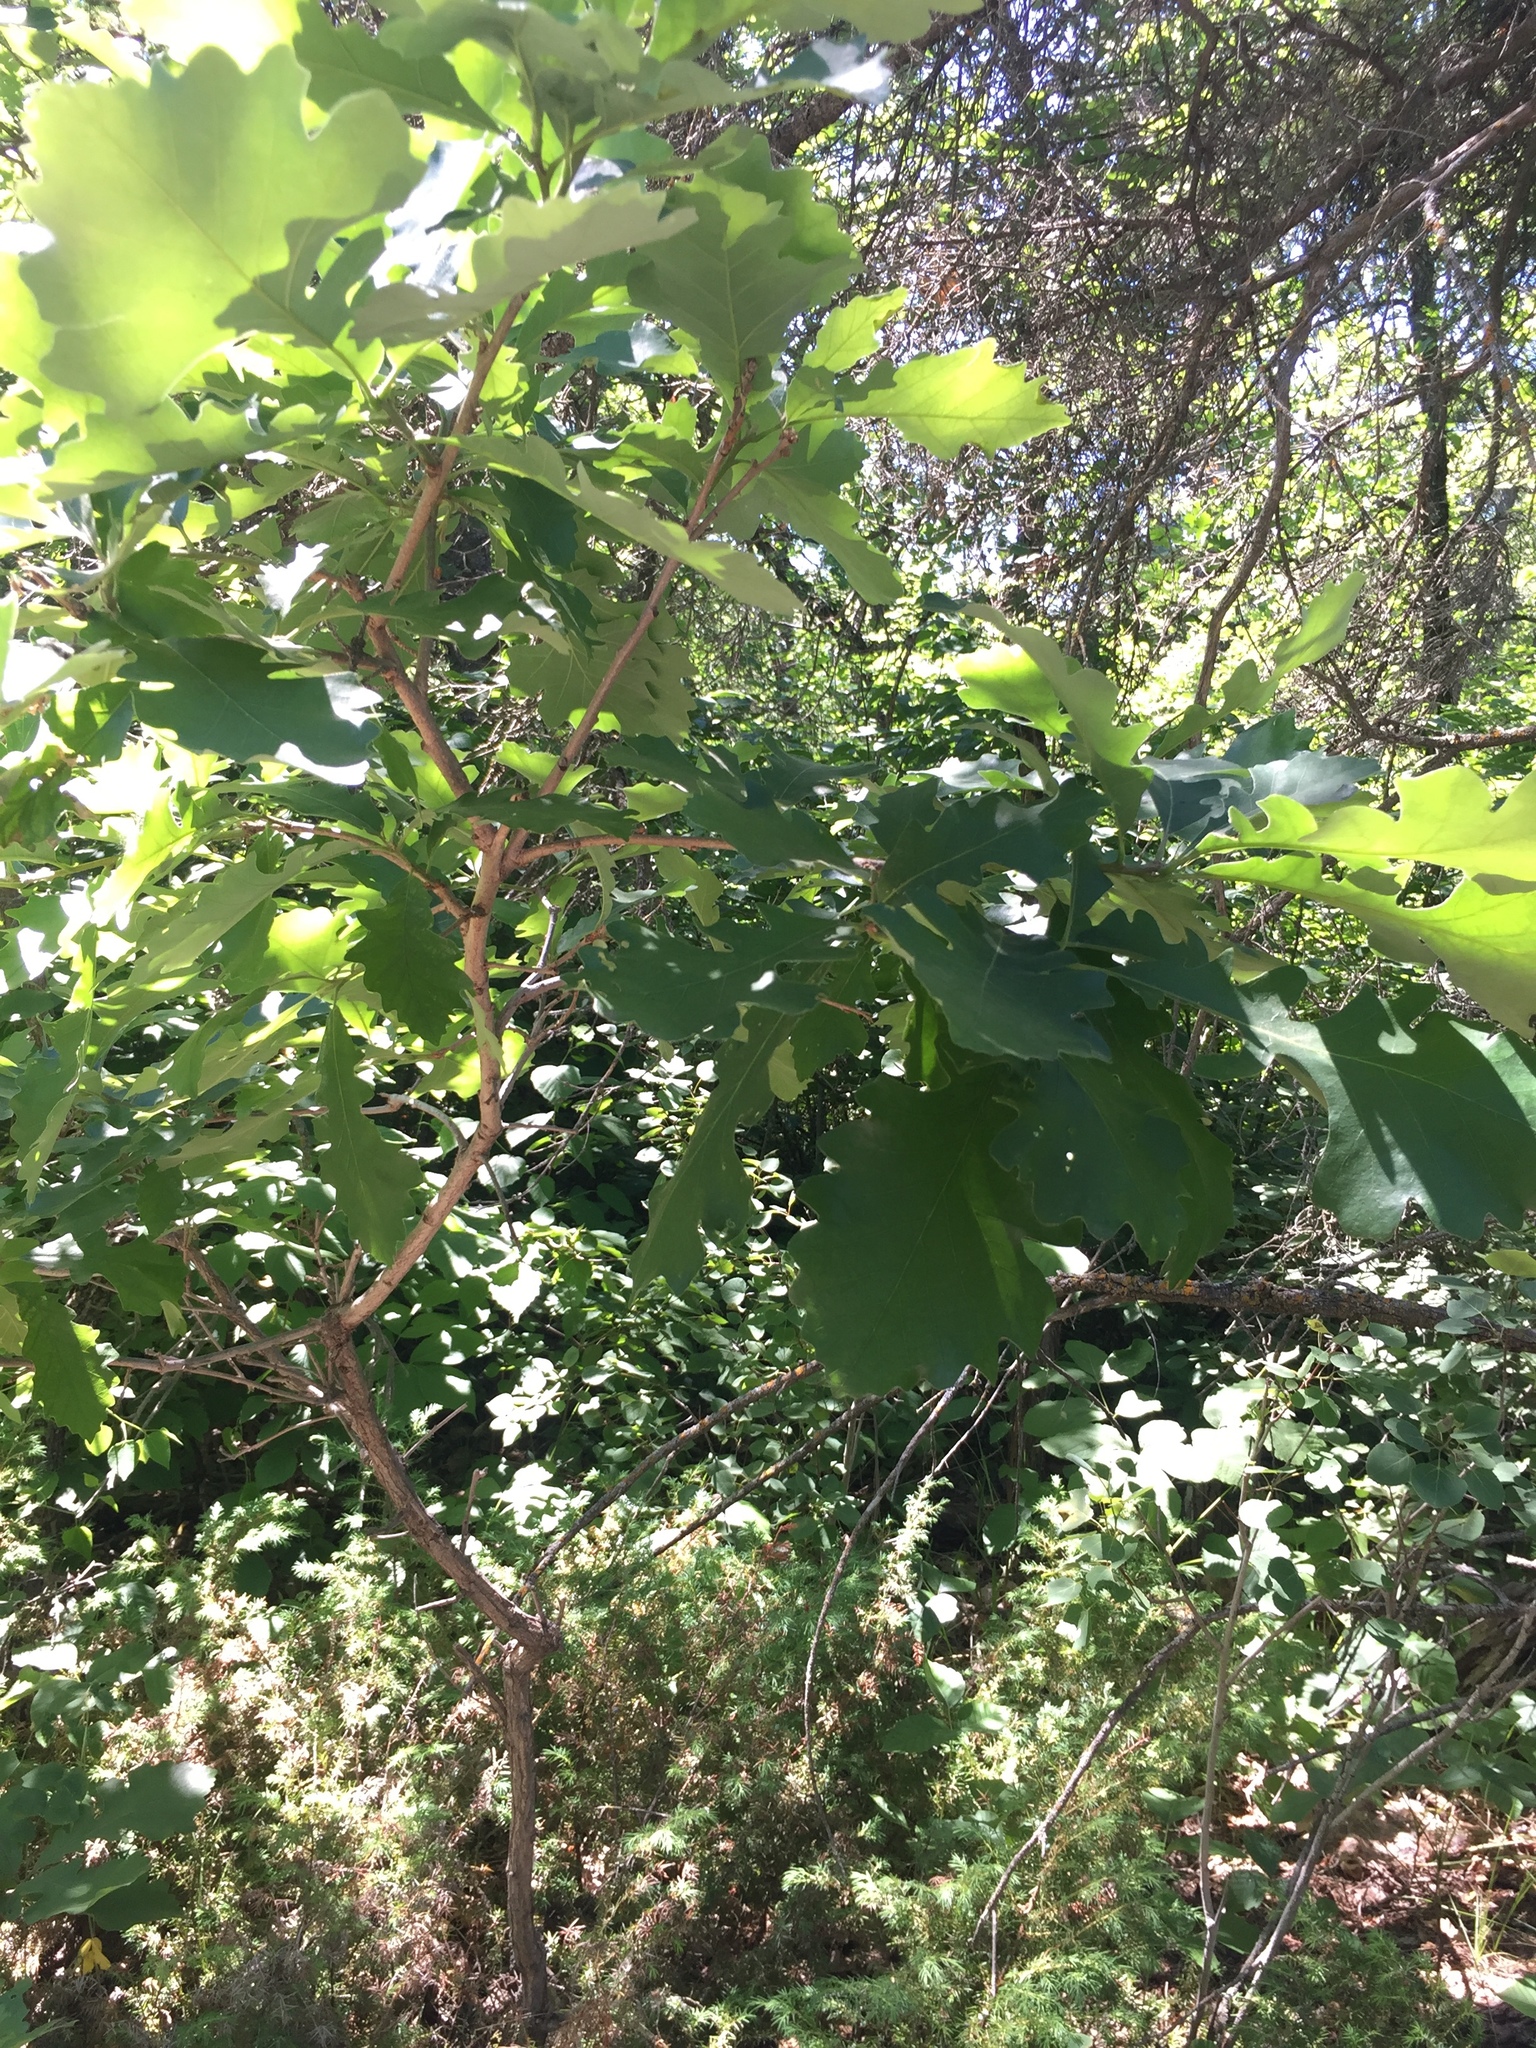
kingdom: Plantae
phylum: Tracheophyta
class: Magnoliopsida
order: Fagales
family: Fagaceae
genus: Quercus
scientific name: Quercus macrocarpa
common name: Bur oak
